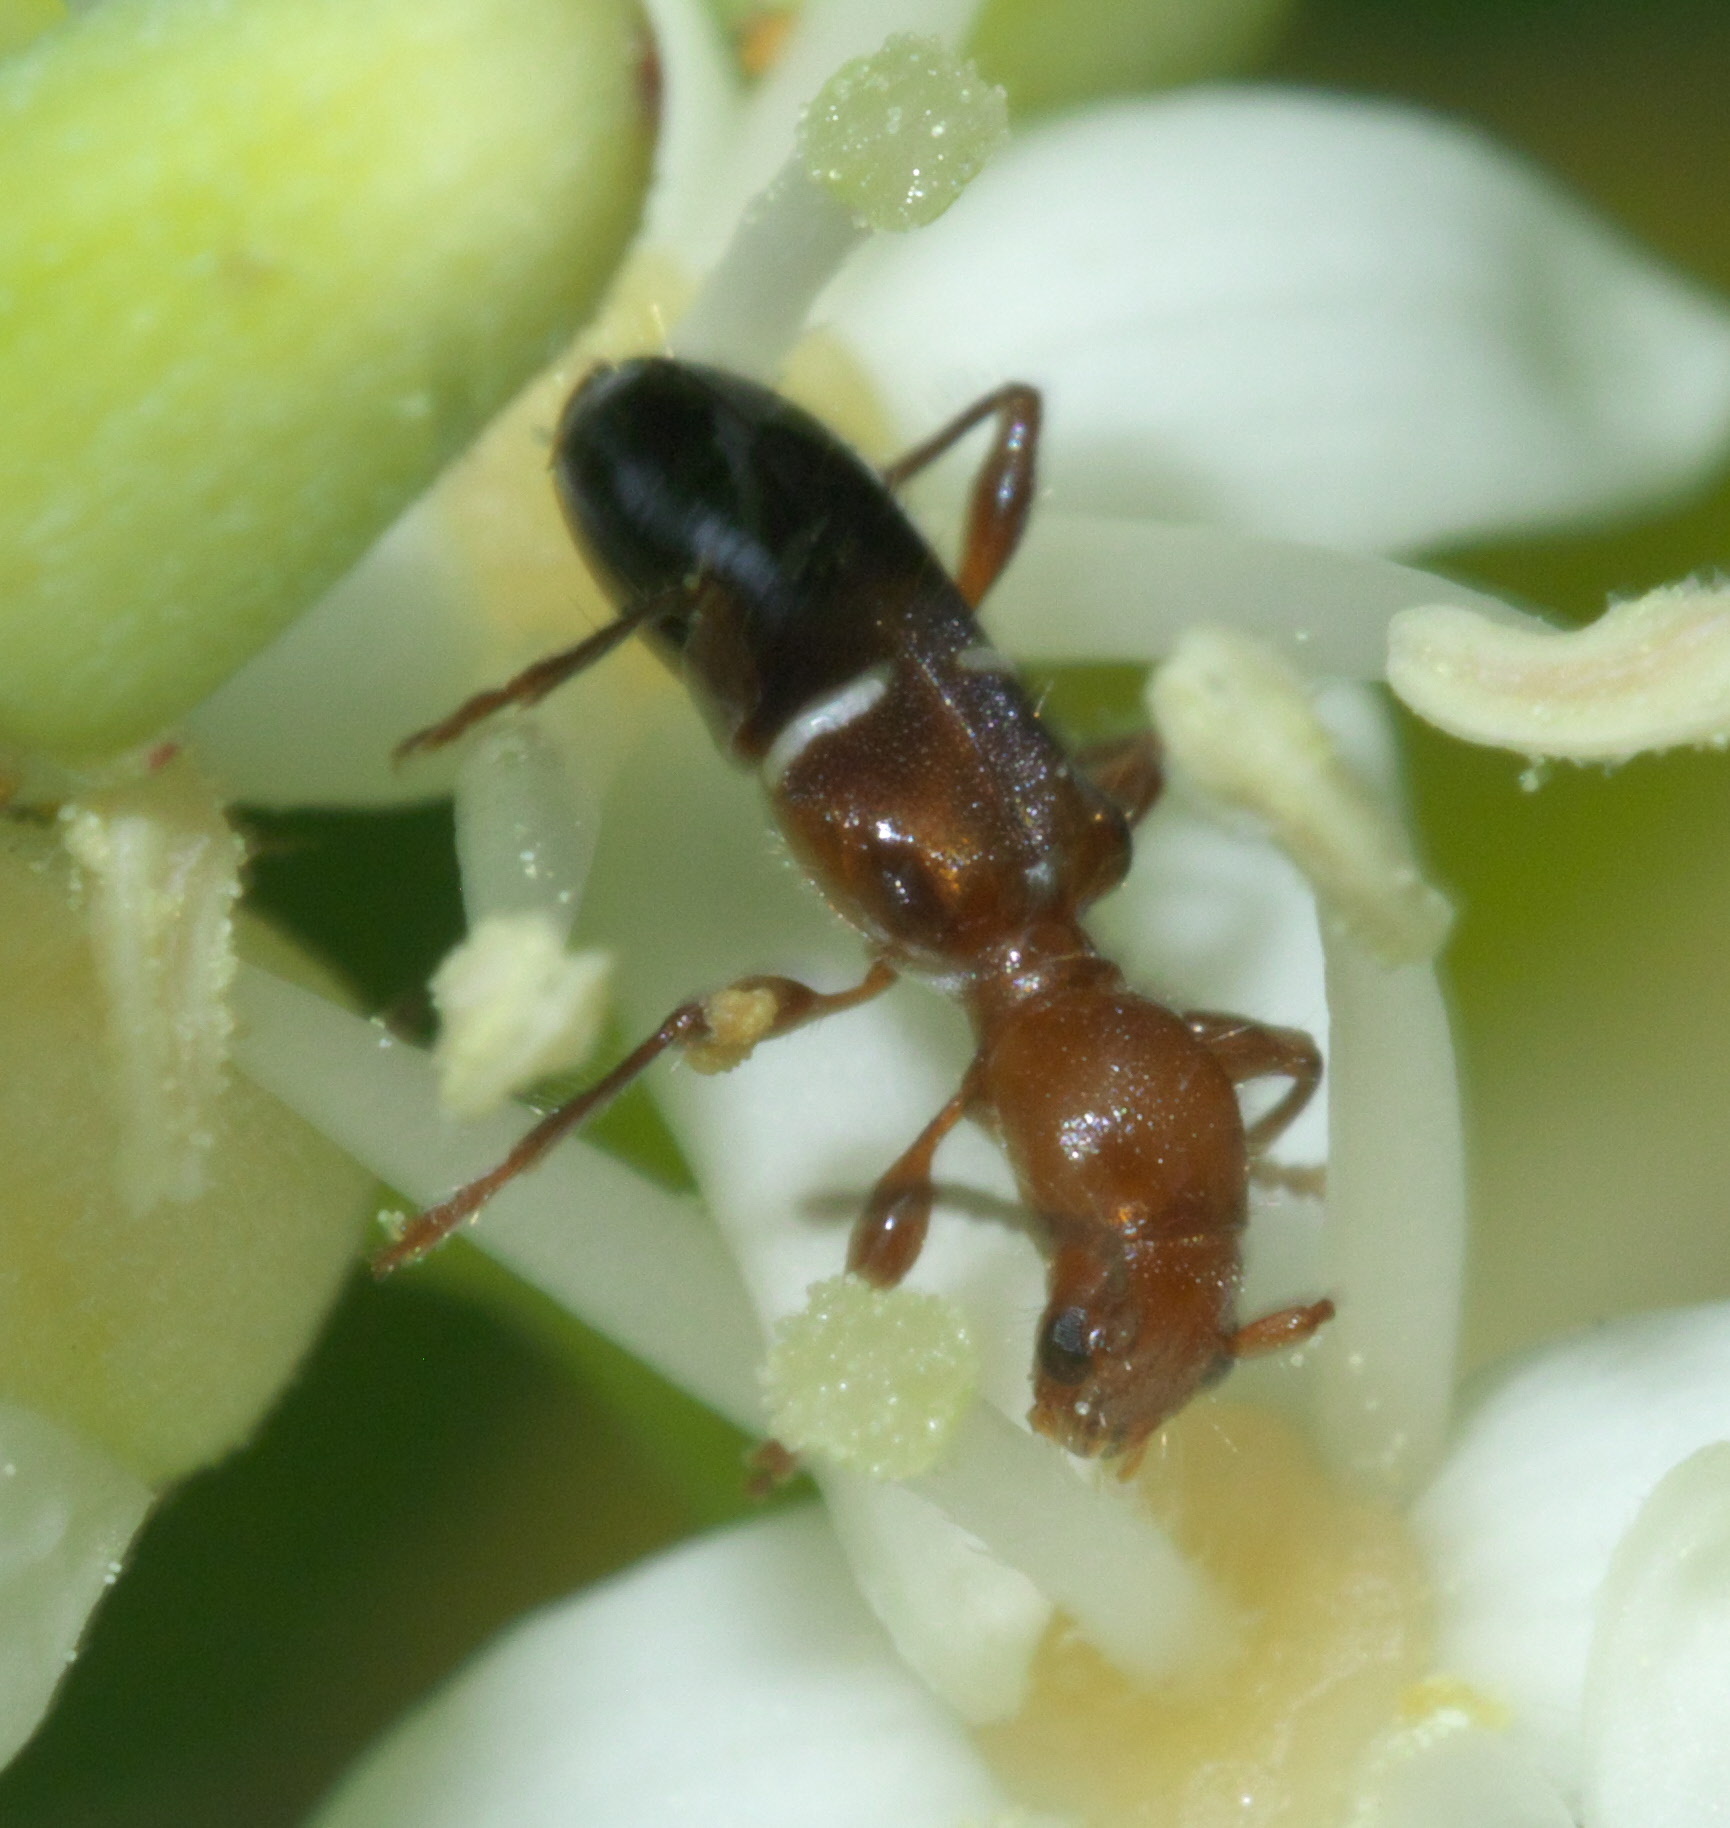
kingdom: Animalia
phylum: Arthropoda
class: Insecta
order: Coleoptera
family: Cerambycidae
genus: Euderces
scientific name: Euderces reichei
